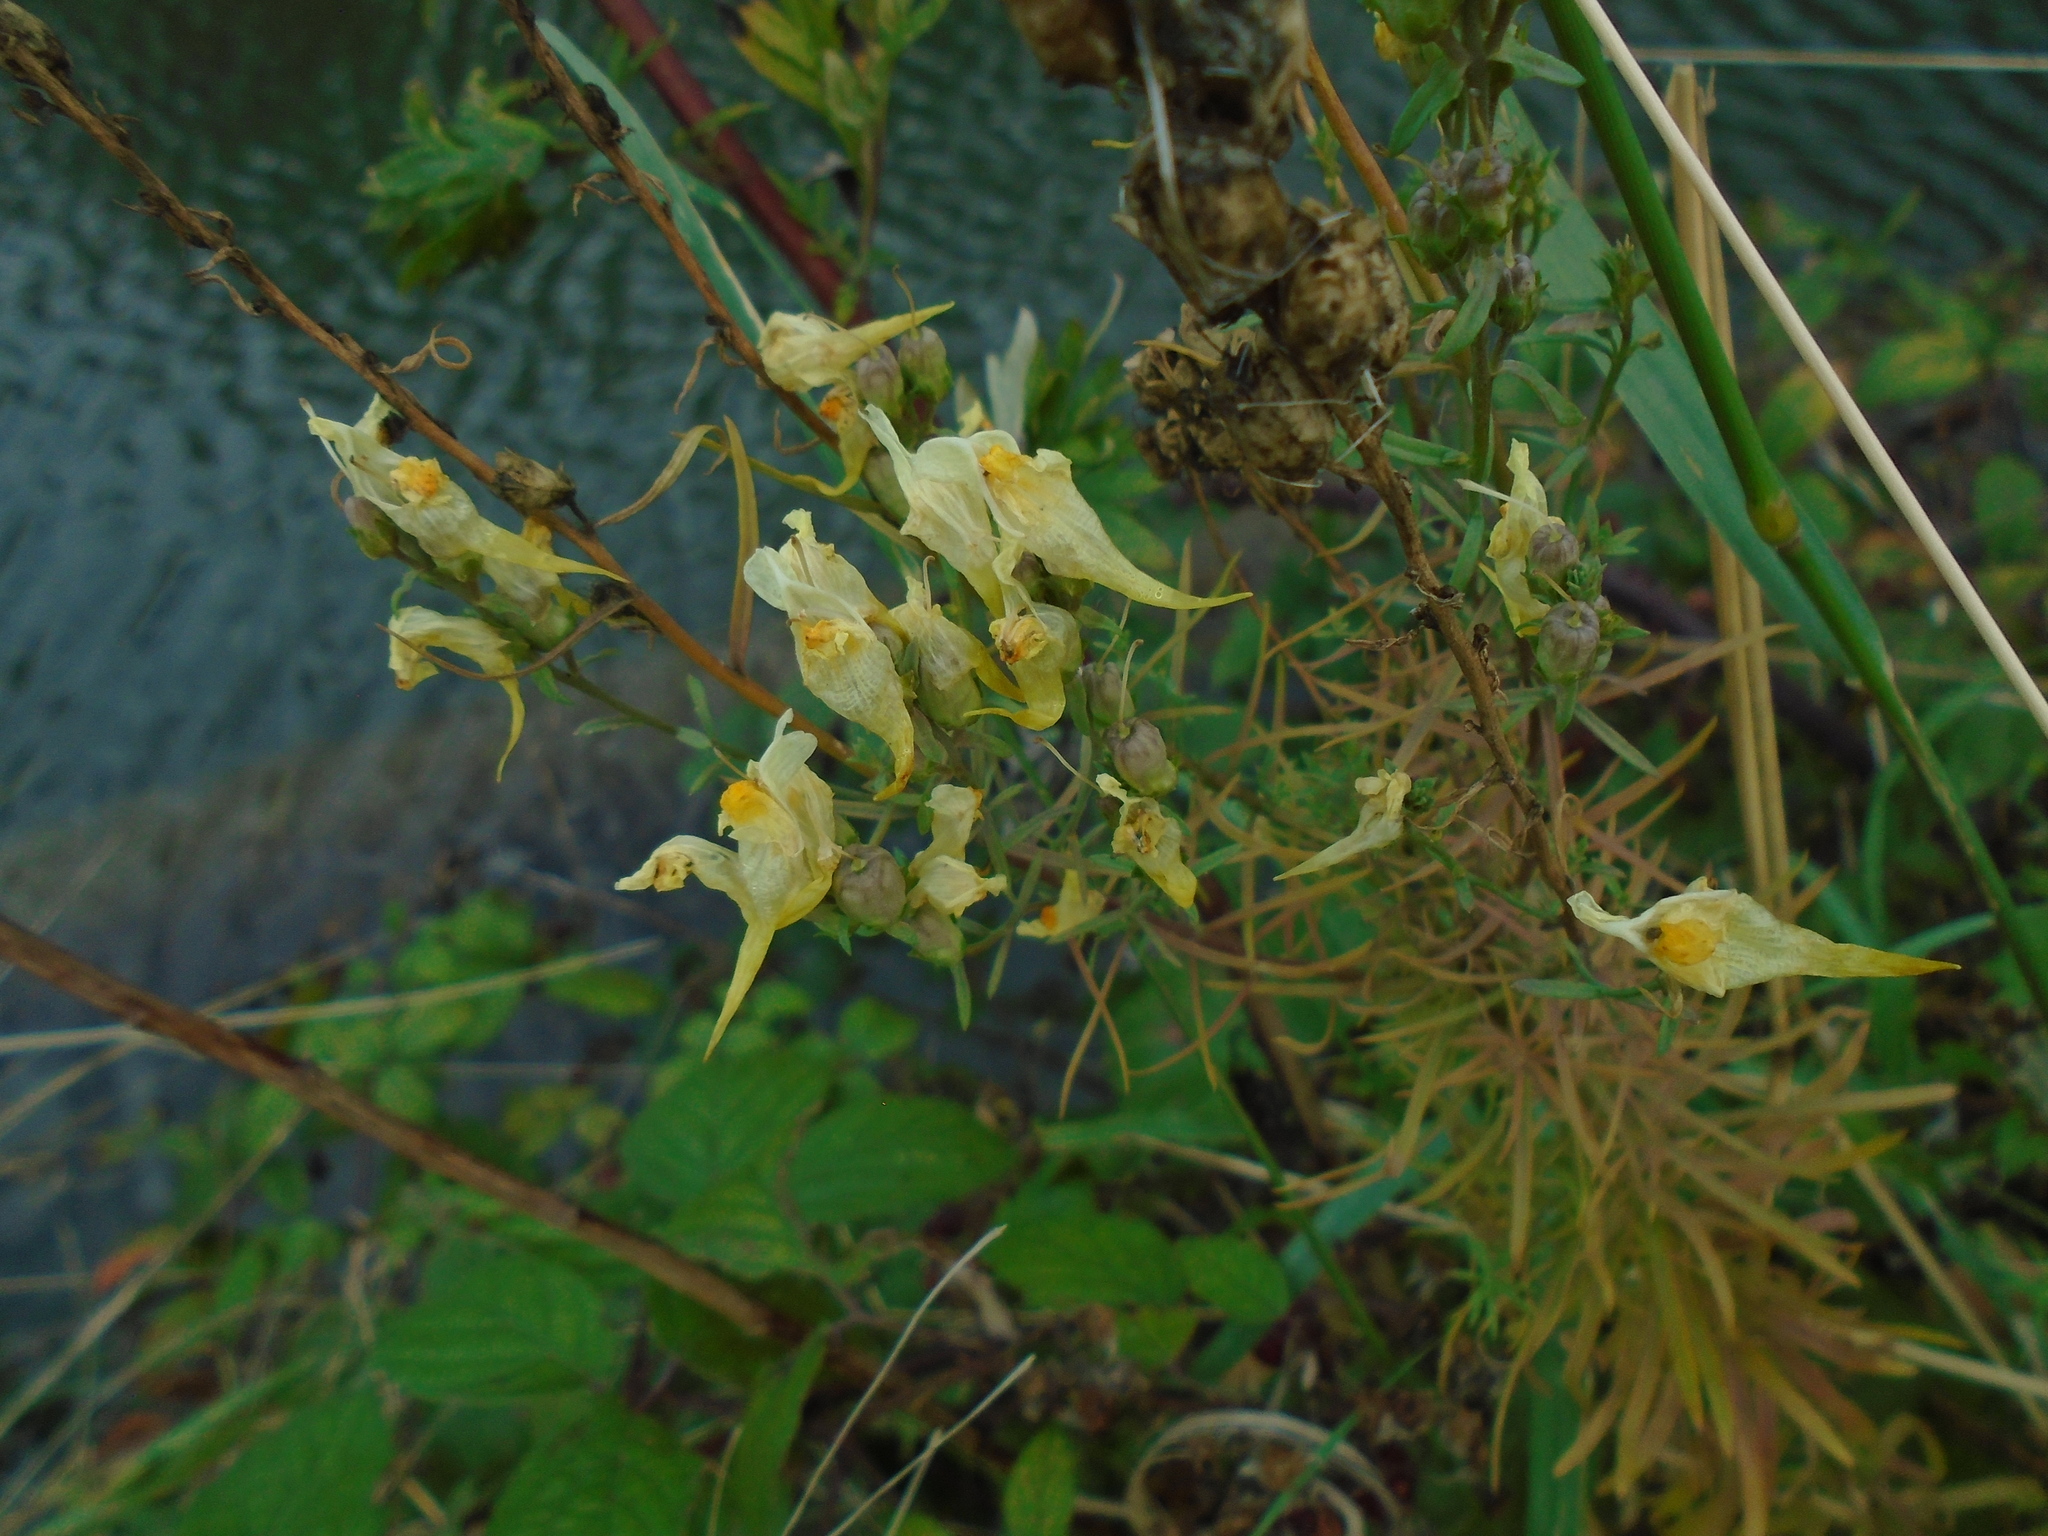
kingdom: Plantae
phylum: Tracheophyta
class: Magnoliopsida
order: Lamiales
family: Plantaginaceae
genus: Linaria
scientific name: Linaria vulgaris
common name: Butter and eggs
